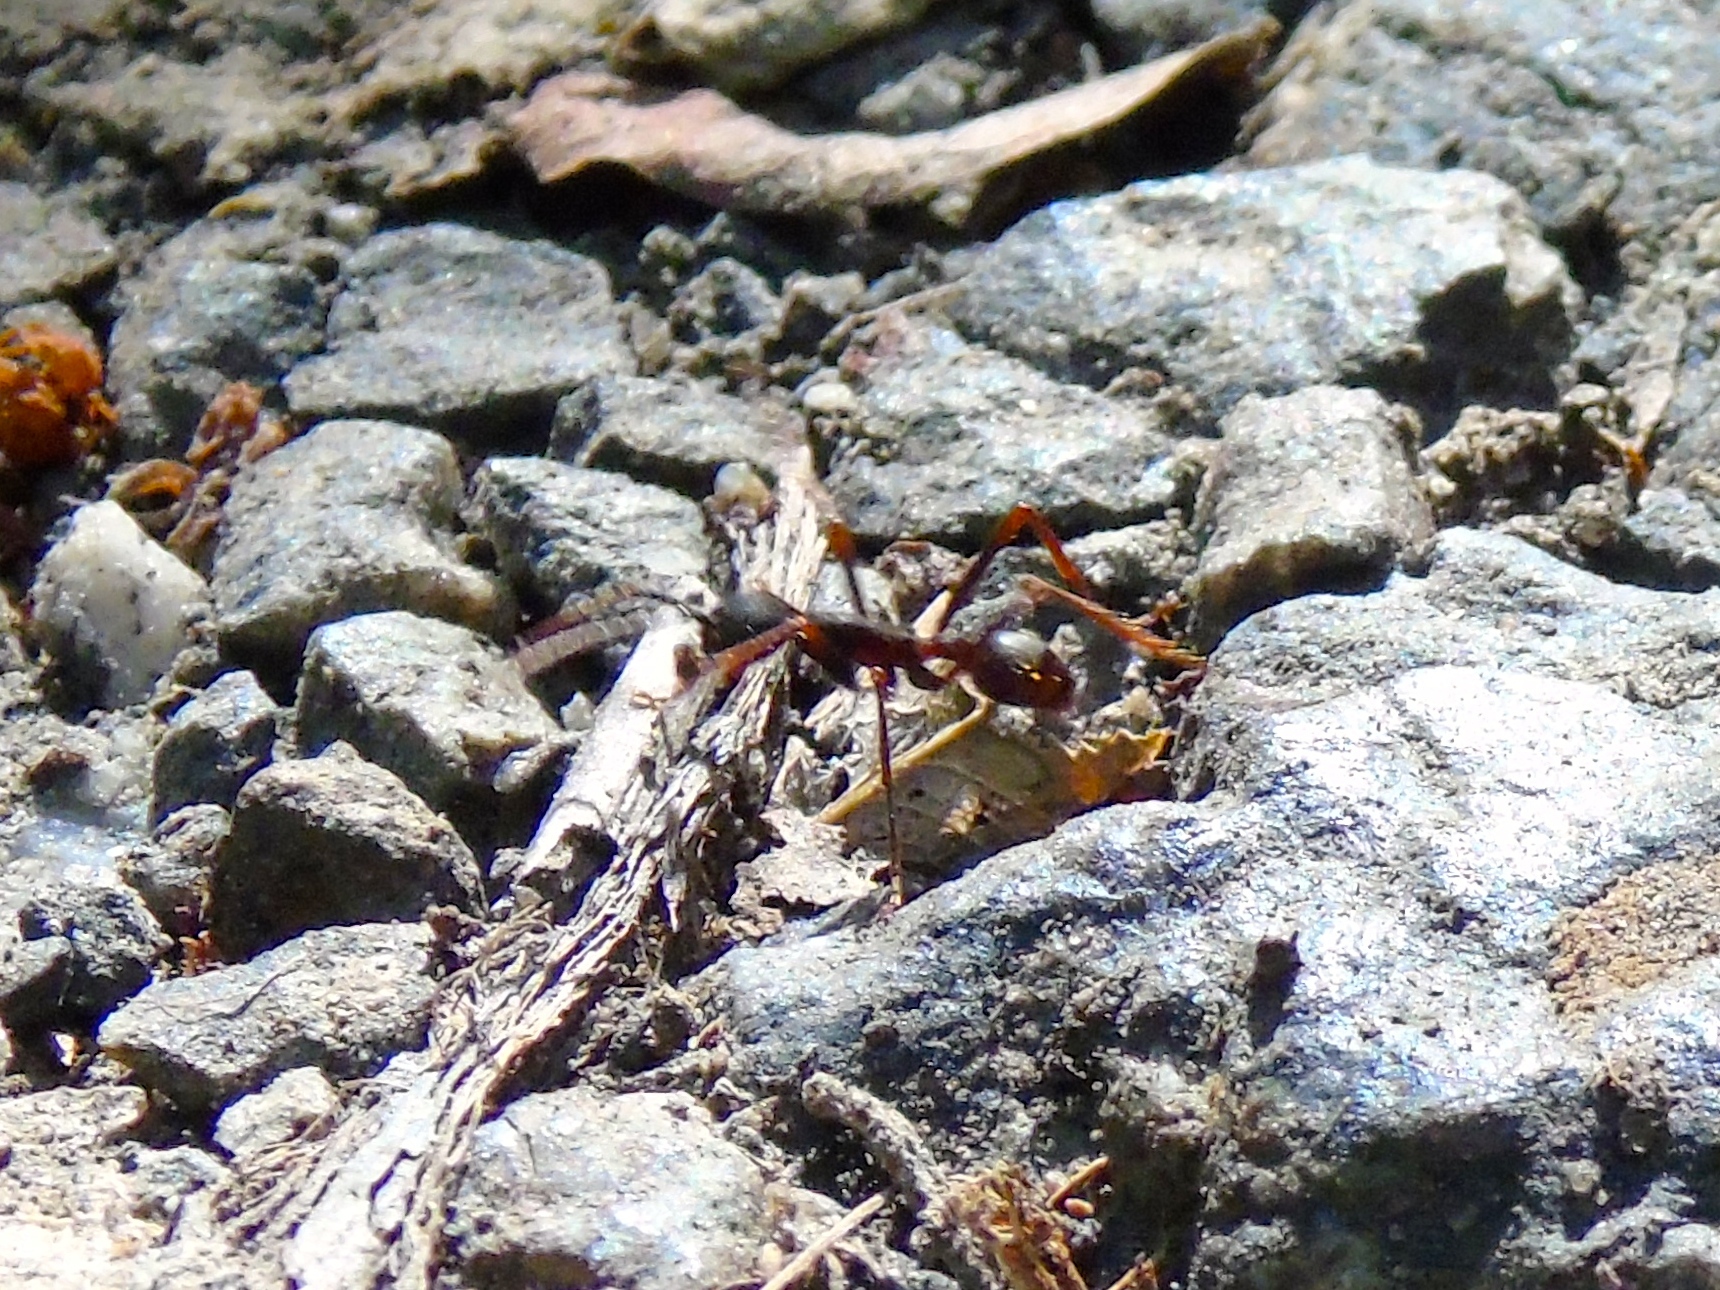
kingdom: Animalia
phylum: Arthropoda
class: Insecta
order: Hymenoptera
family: Formicidae
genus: Eciton
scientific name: Eciton
